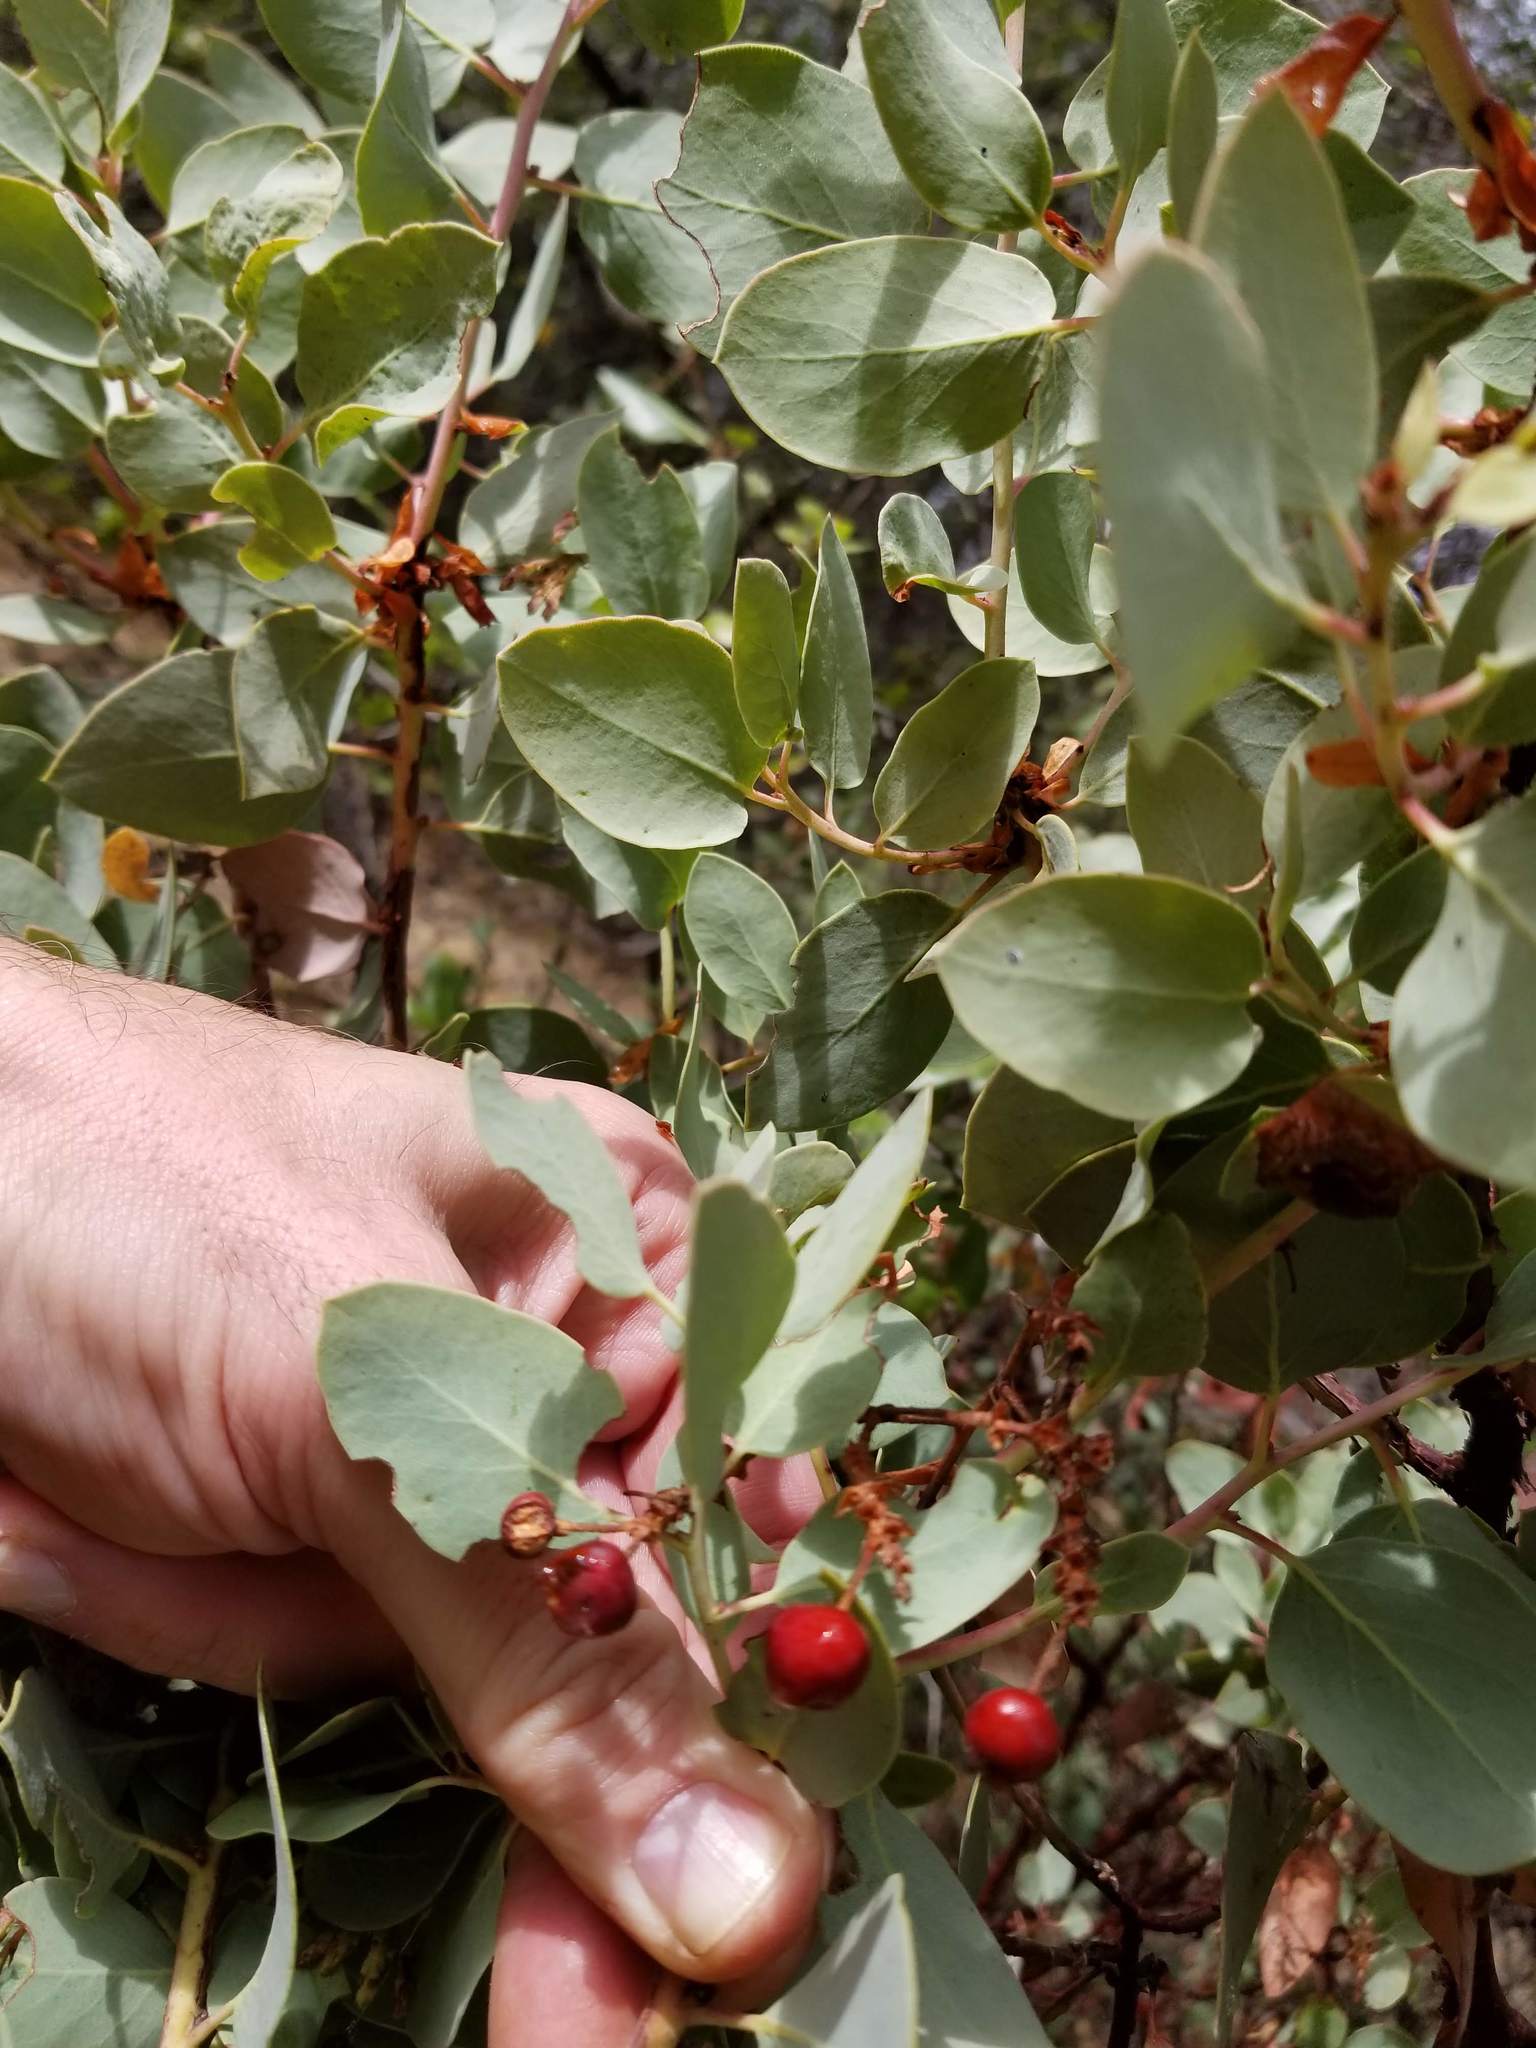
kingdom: Plantae
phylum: Tracheophyta
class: Magnoliopsida
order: Ericales
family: Ericaceae
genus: Arctostaphylos
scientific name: Arctostaphylos viscida
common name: White-leaf manzanita
